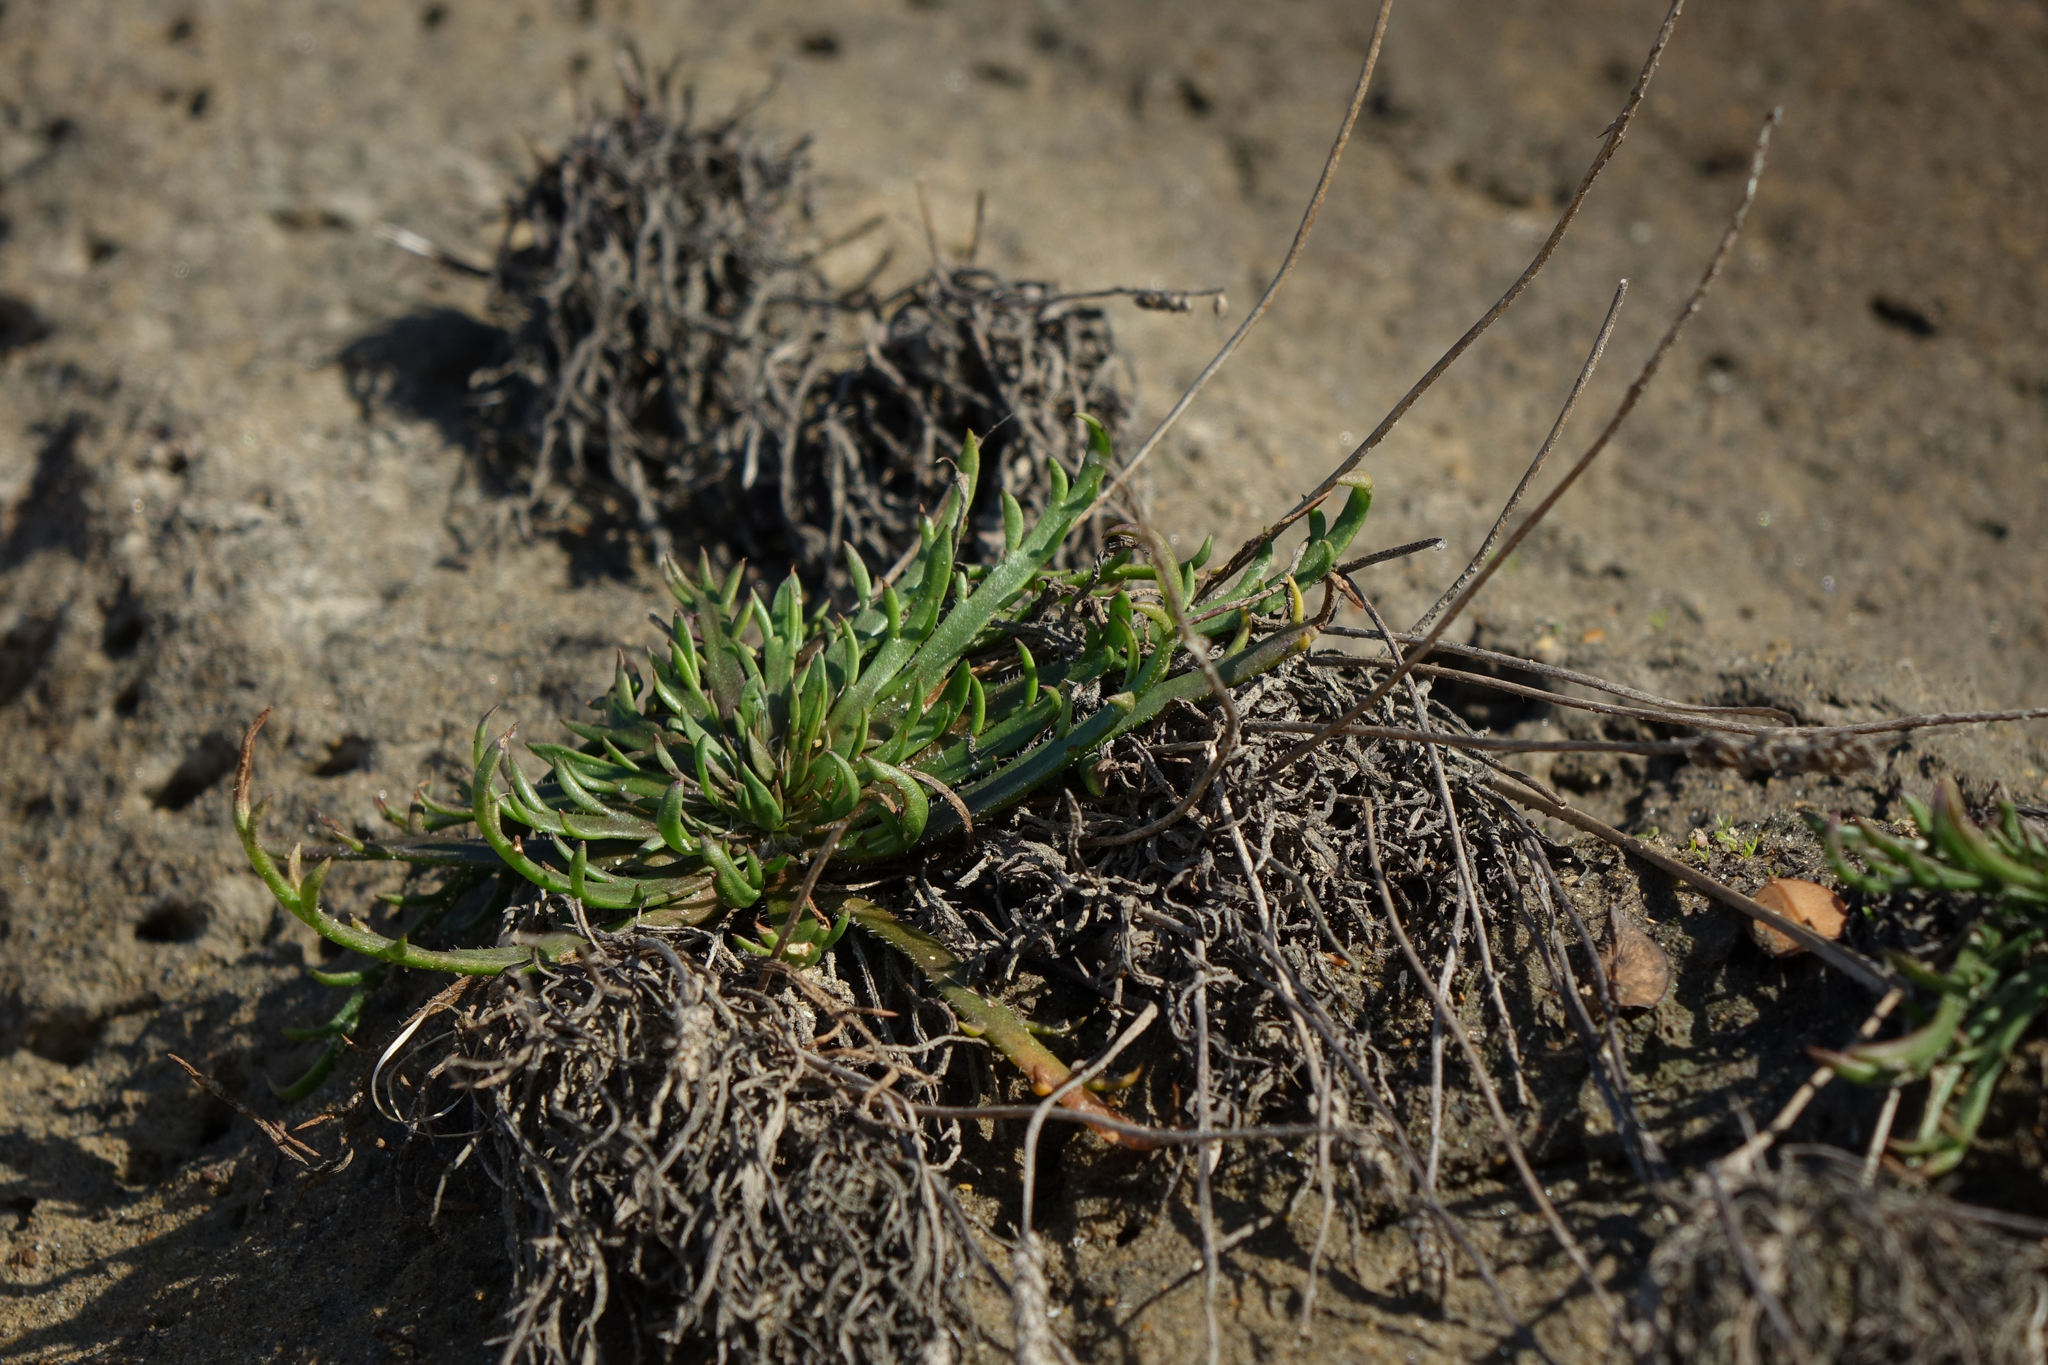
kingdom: Plantae
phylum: Tracheophyta
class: Magnoliopsida
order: Lamiales
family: Plantaginaceae
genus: Plantago
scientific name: Plantago coronopus
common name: Buck's-horn plantain
